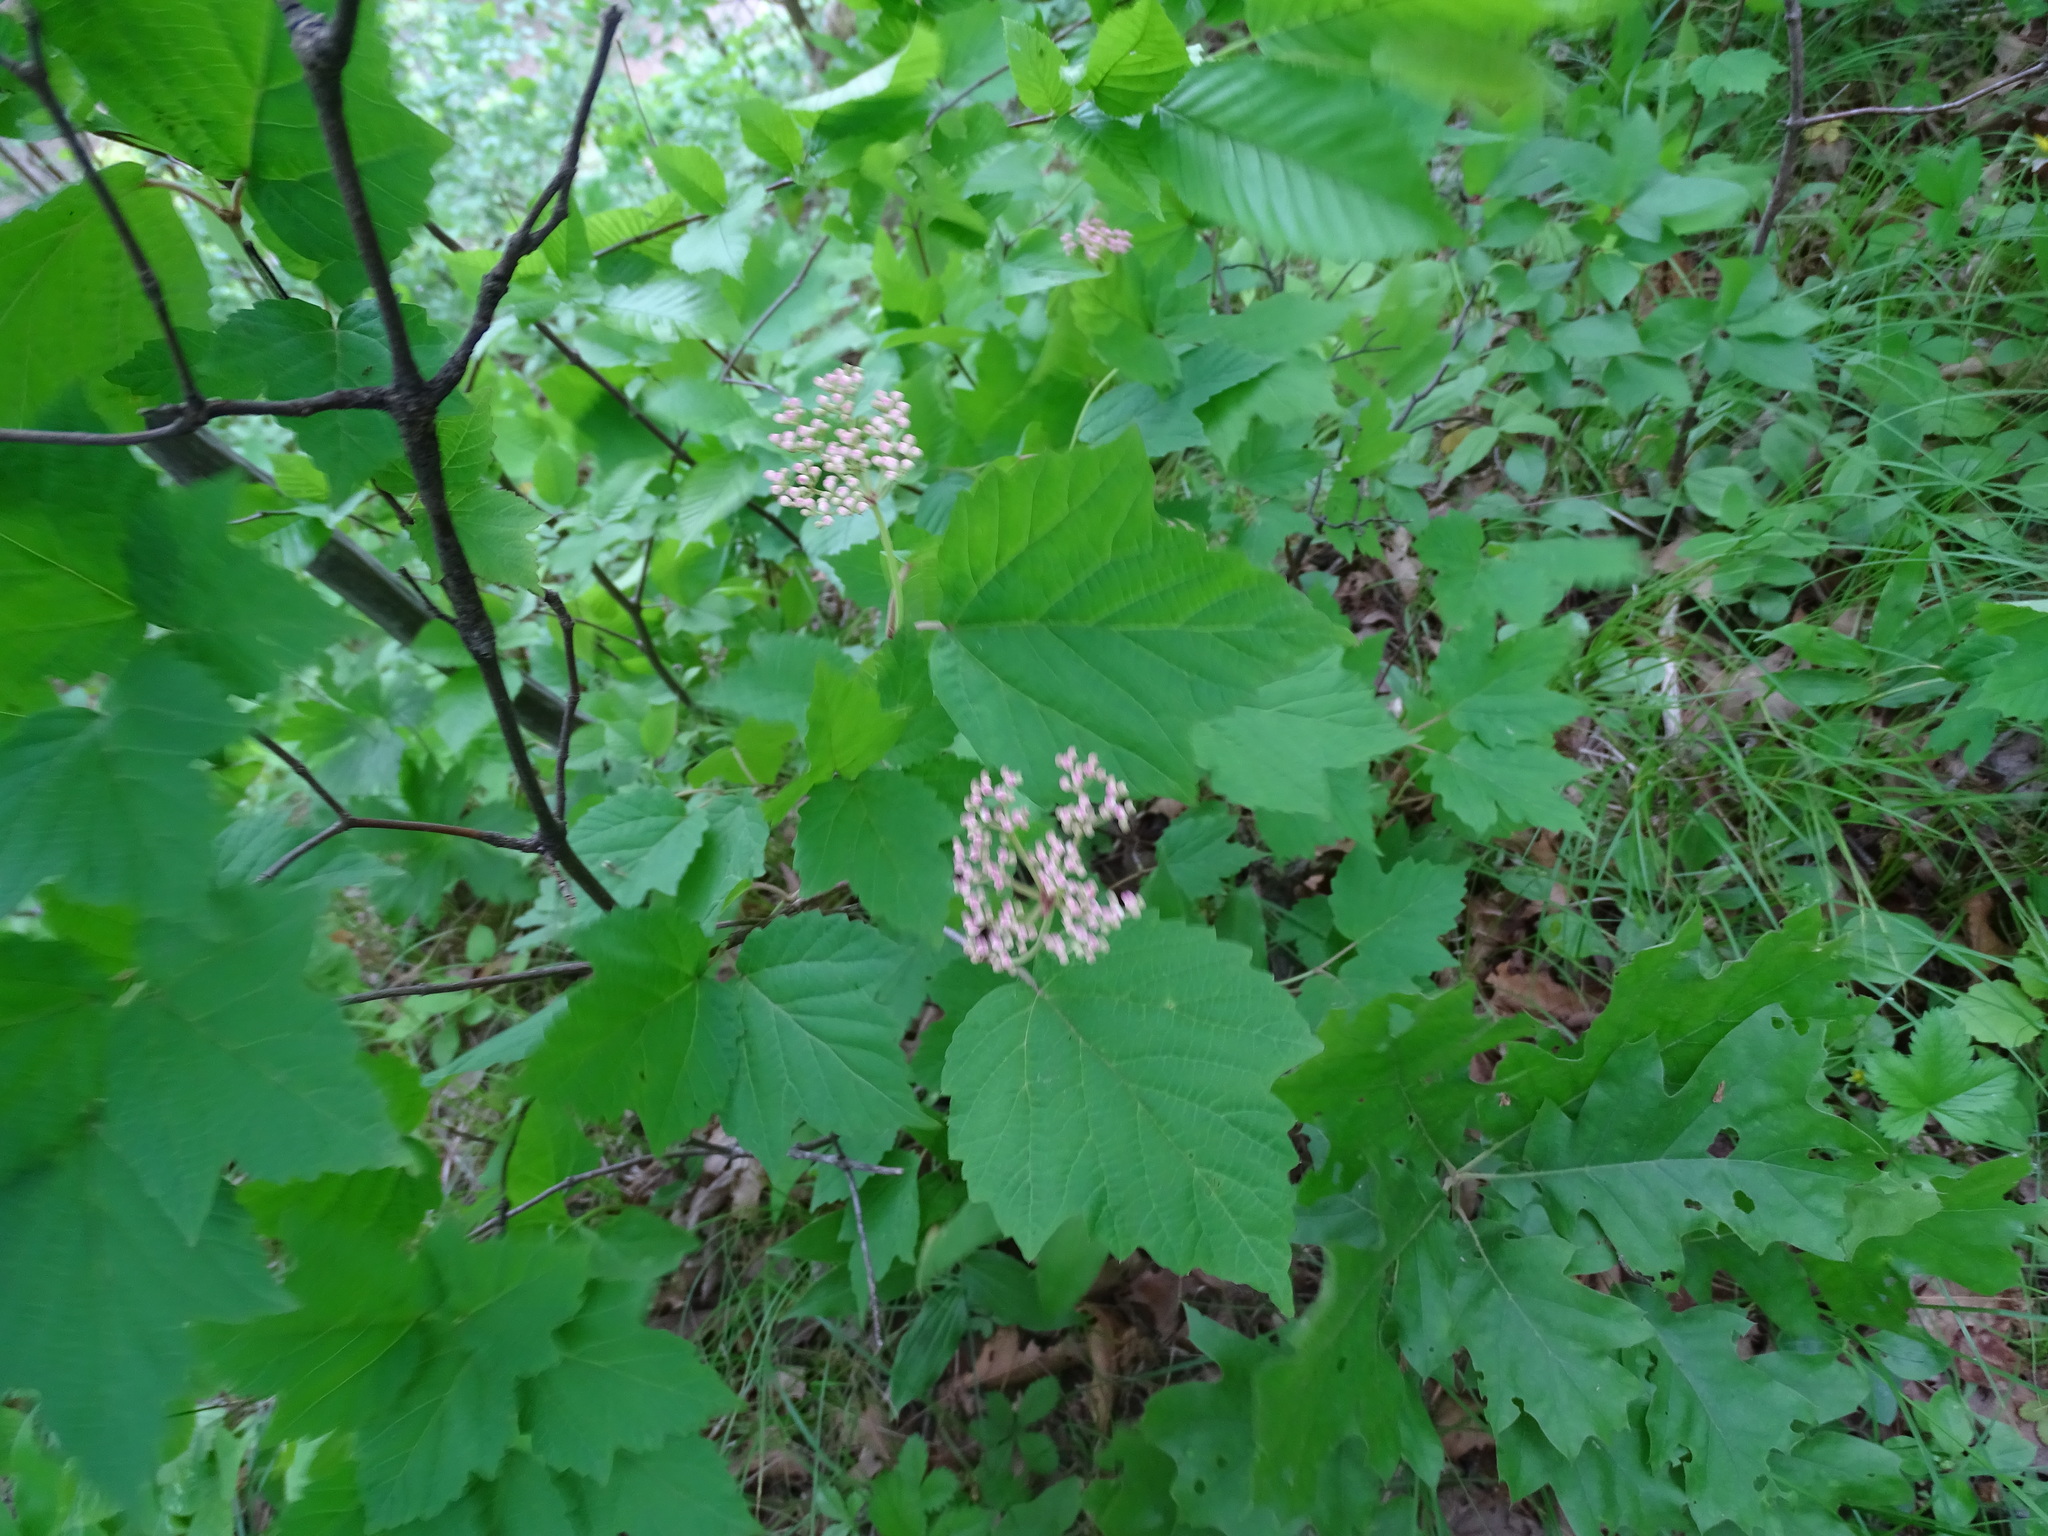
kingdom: Plantae
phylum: Tracheophyta
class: Magnoliopsida
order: Dipsacales
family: Viburnaceae
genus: Viburnum
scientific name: Viburnum acerifolium
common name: Dockmackie
